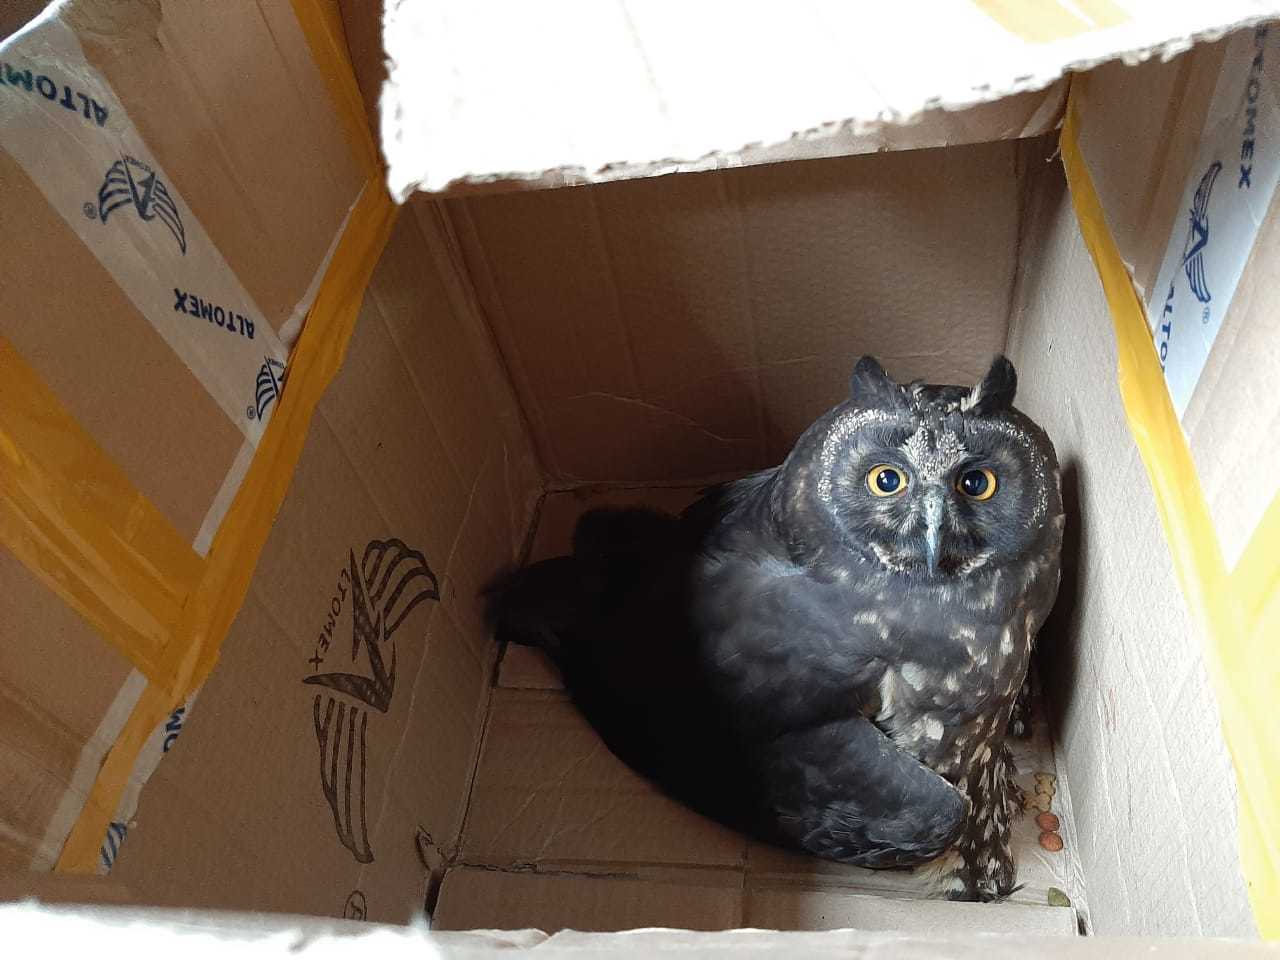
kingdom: Animalia
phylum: Chordata
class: Aves
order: Strigiformes
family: Strigidae
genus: Asio
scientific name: Asio stygius
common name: Stygian owl
